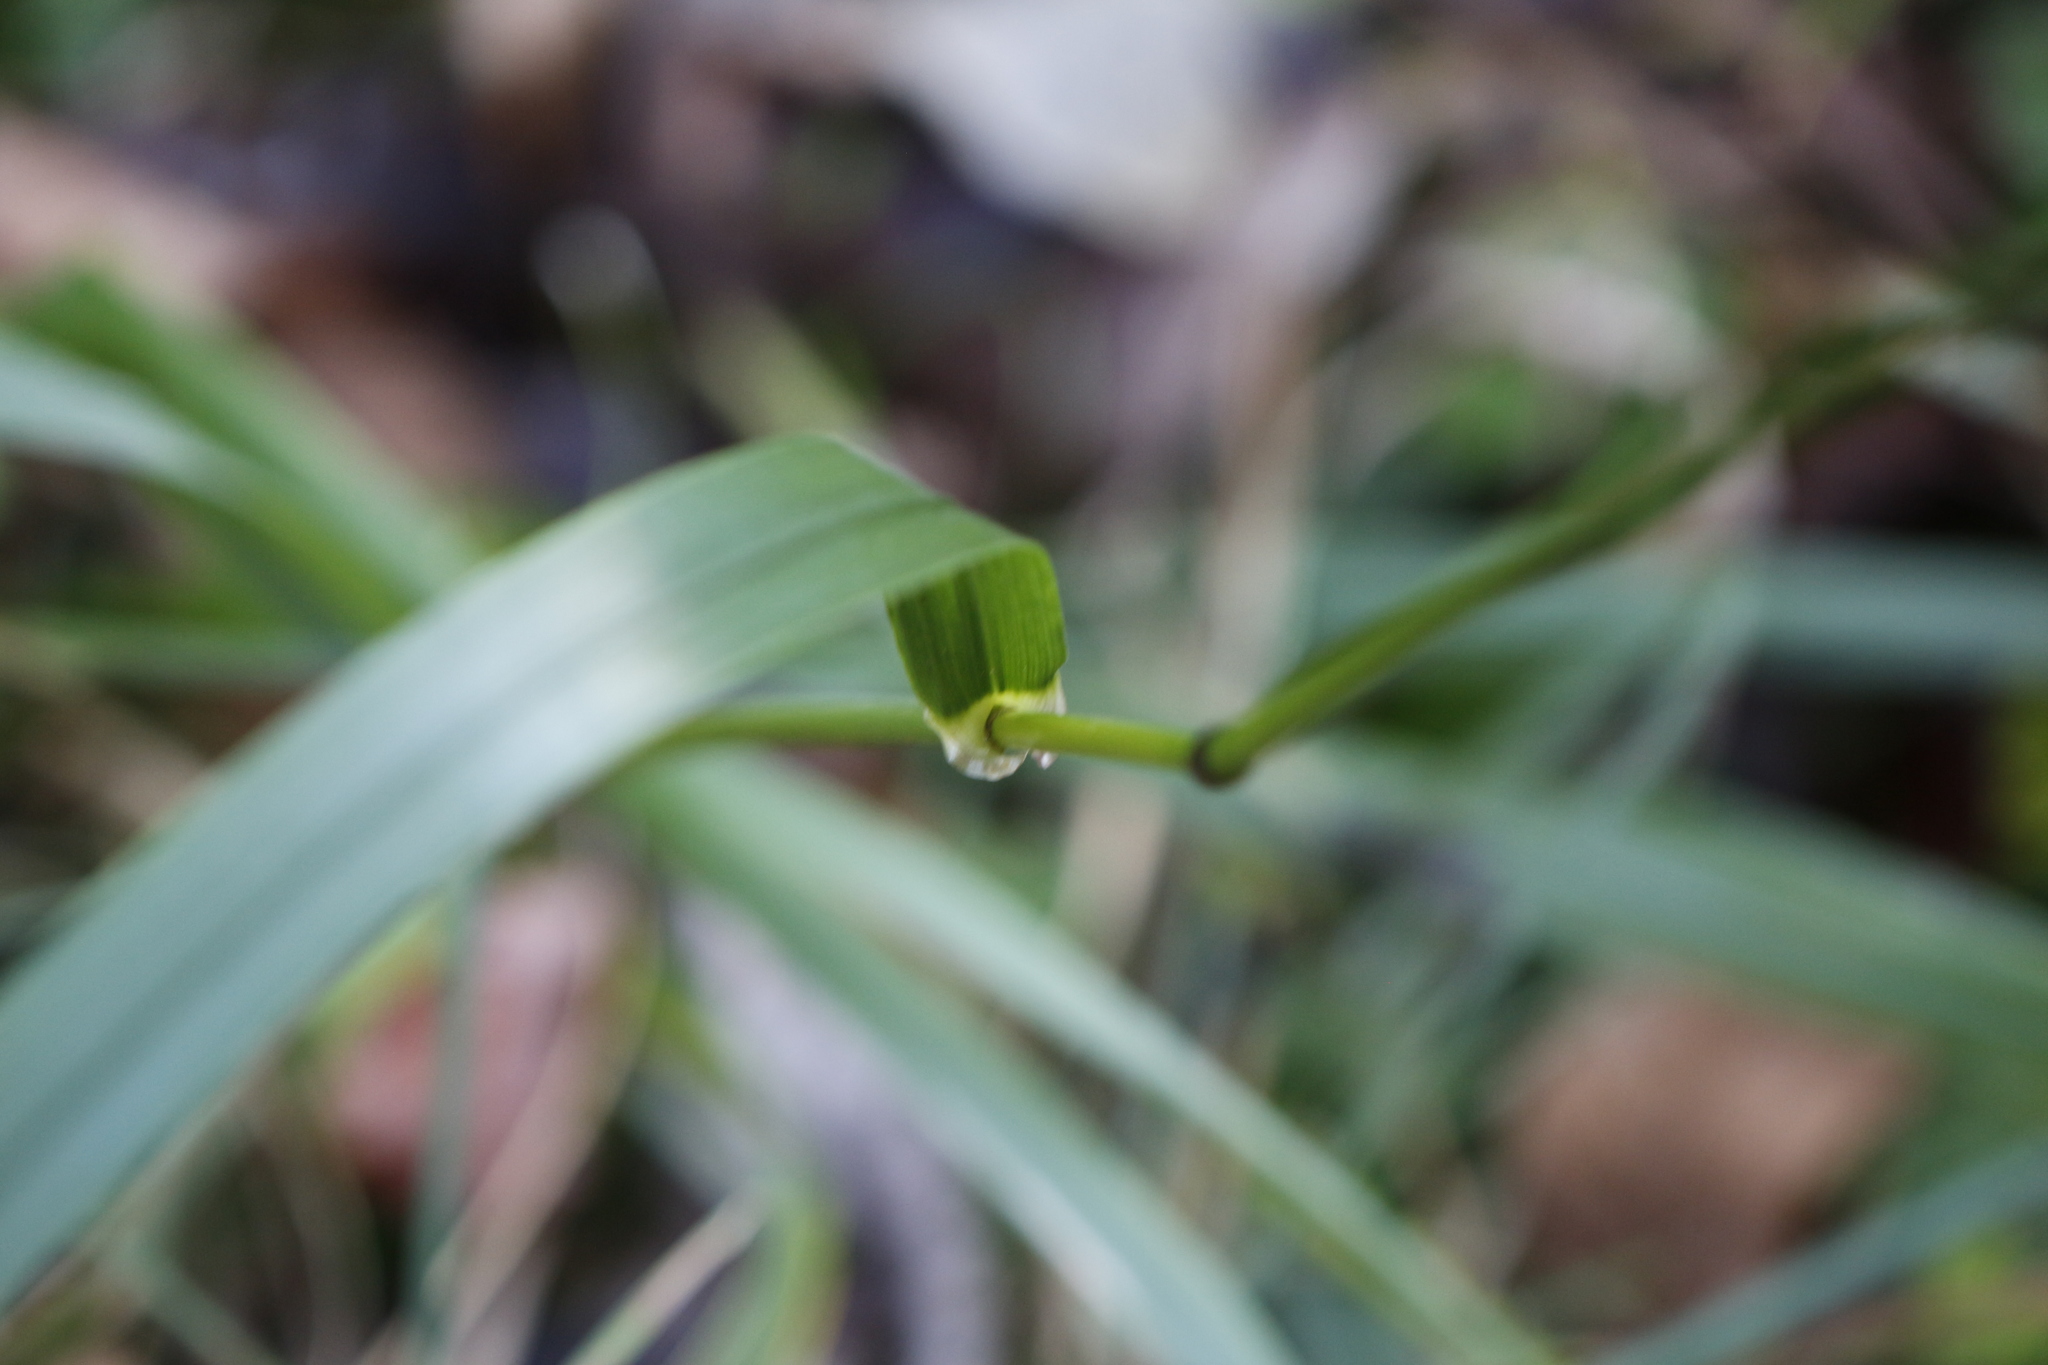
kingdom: Plantae
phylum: Tracheophyta
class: Liliopsida
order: Poales
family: Poaceae
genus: Lolium
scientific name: Lolium giganteum
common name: Giant fescue
